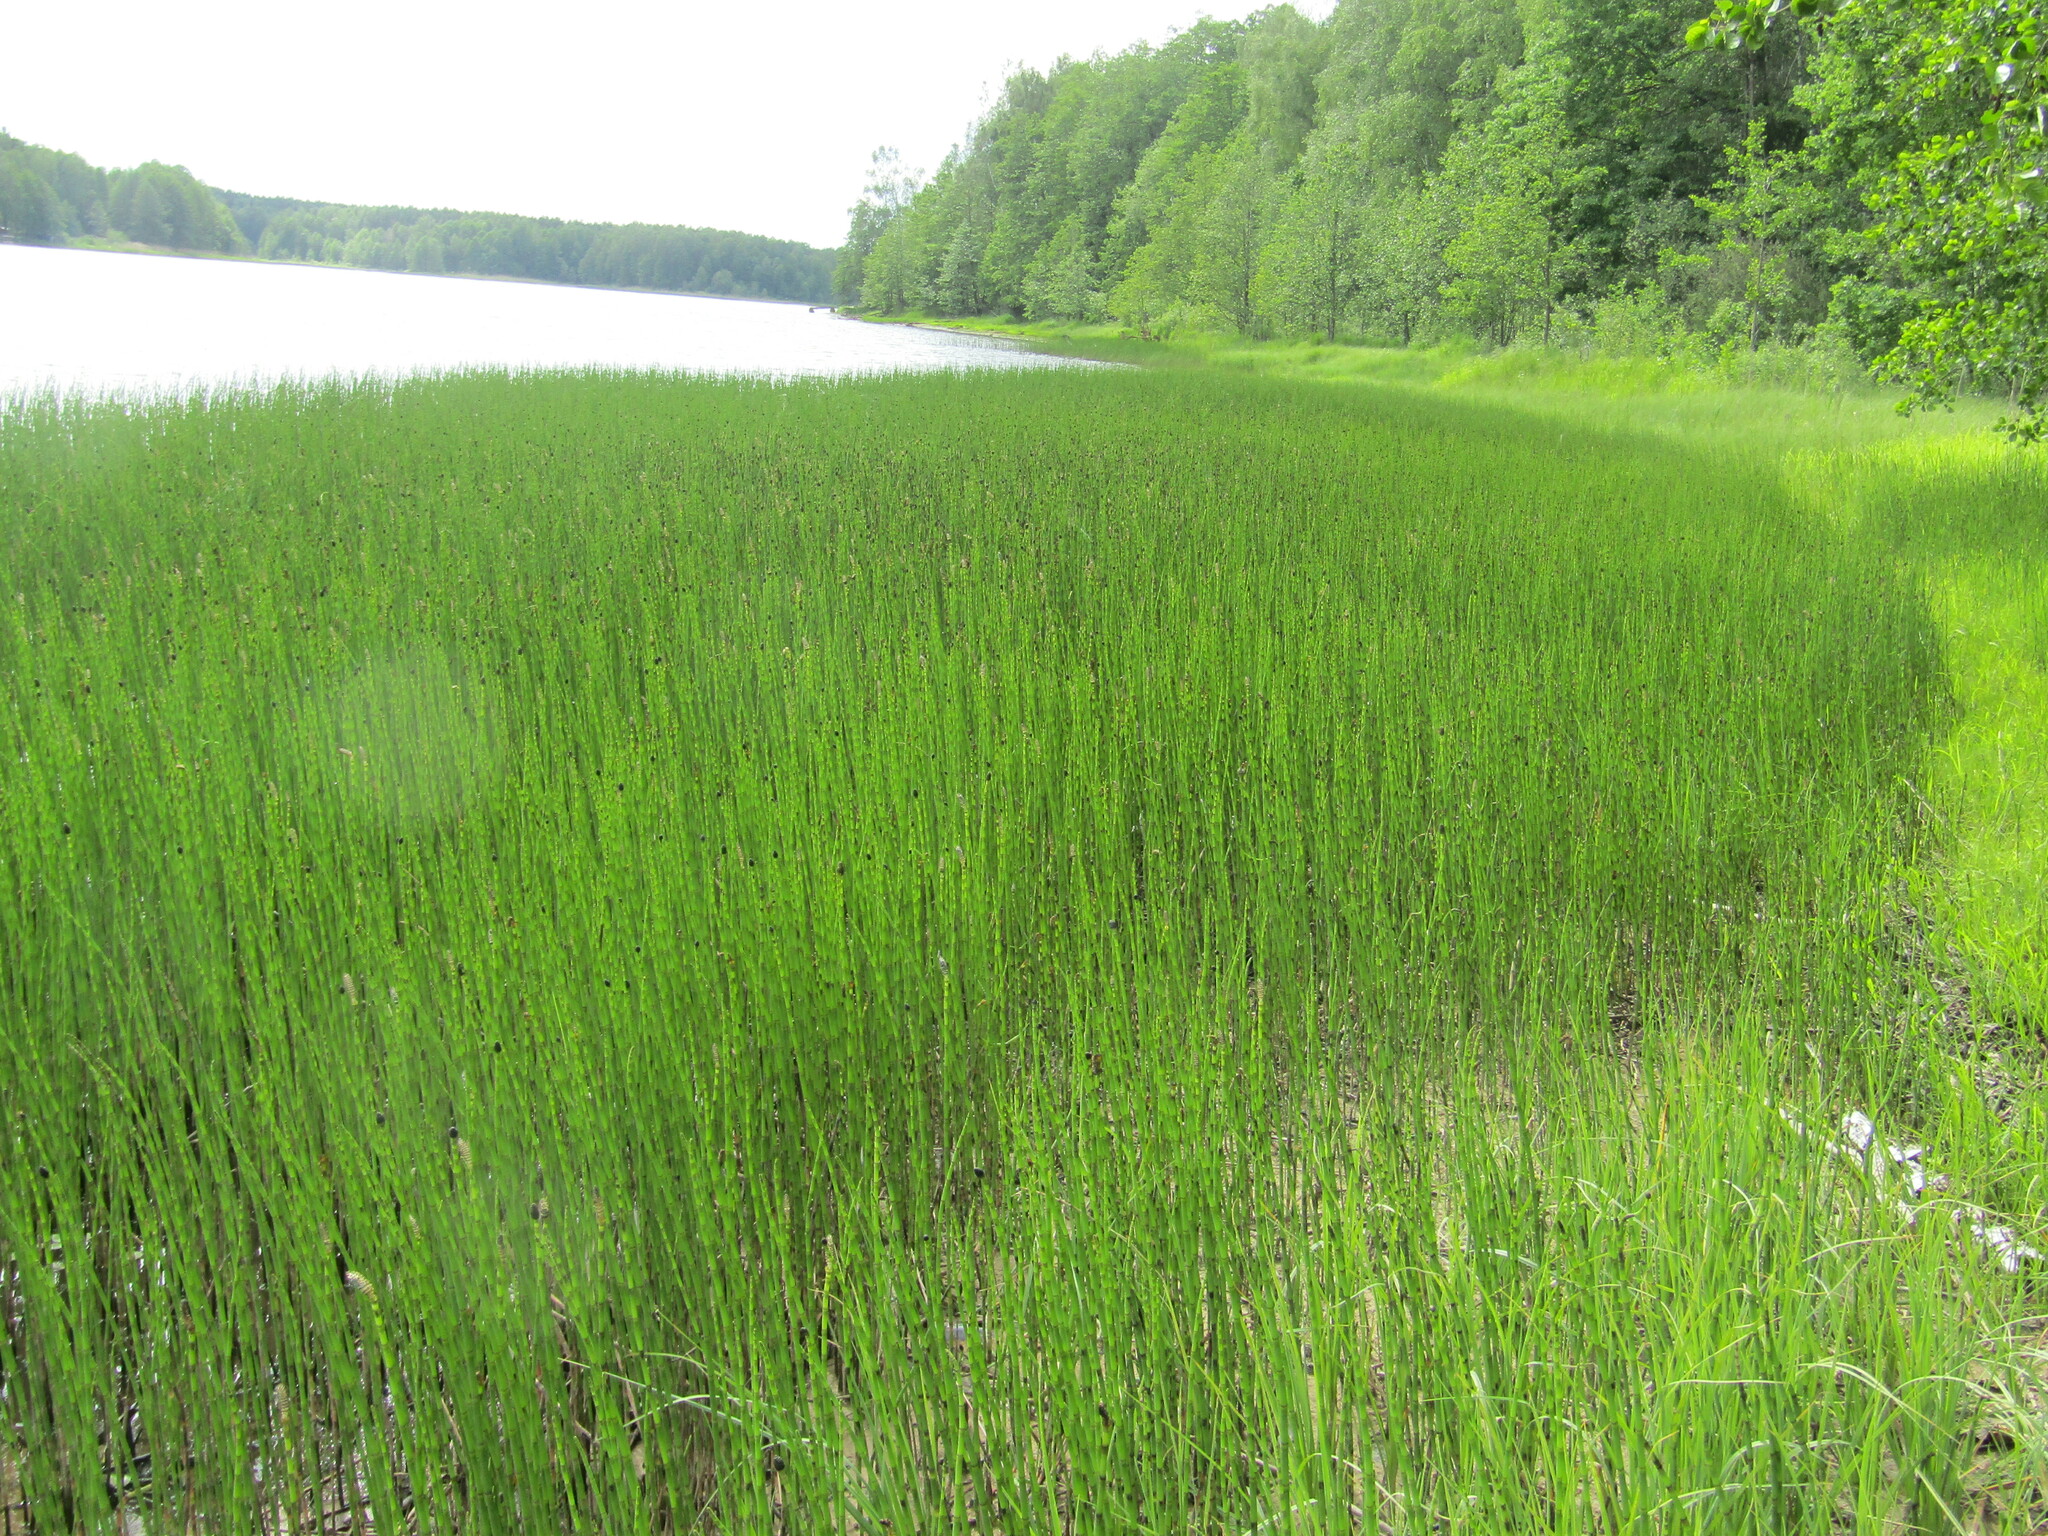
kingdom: Plantae
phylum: Tracheophyta
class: Polypodiopsida
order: Equisetales
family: Equisetaceae
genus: Equisetum
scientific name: Equisetum fluviatile
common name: Water horsetail
